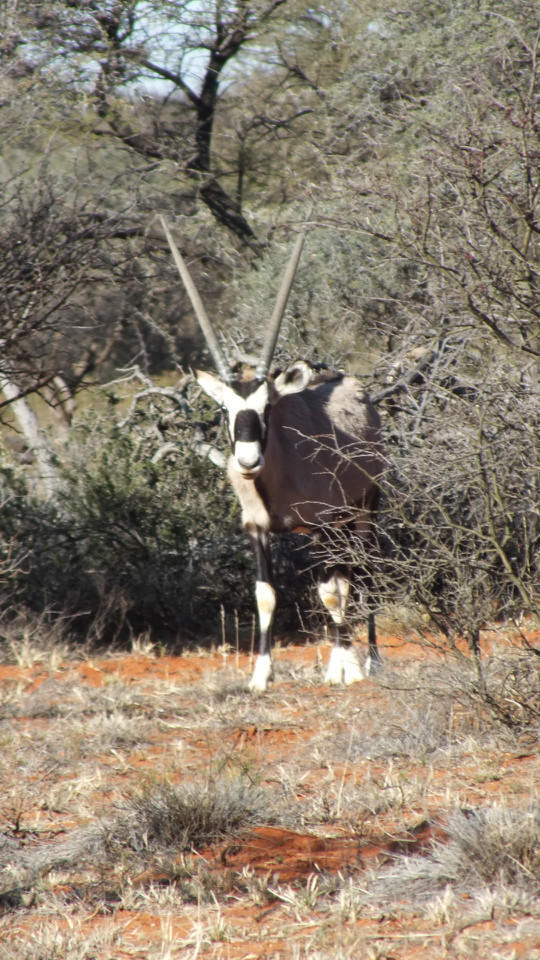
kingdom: Animalia
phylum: Chordata
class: Mammalia
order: Artiodactyla
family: Bovidae
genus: Oryx
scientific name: Oryx gazella
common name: Gemsbok
